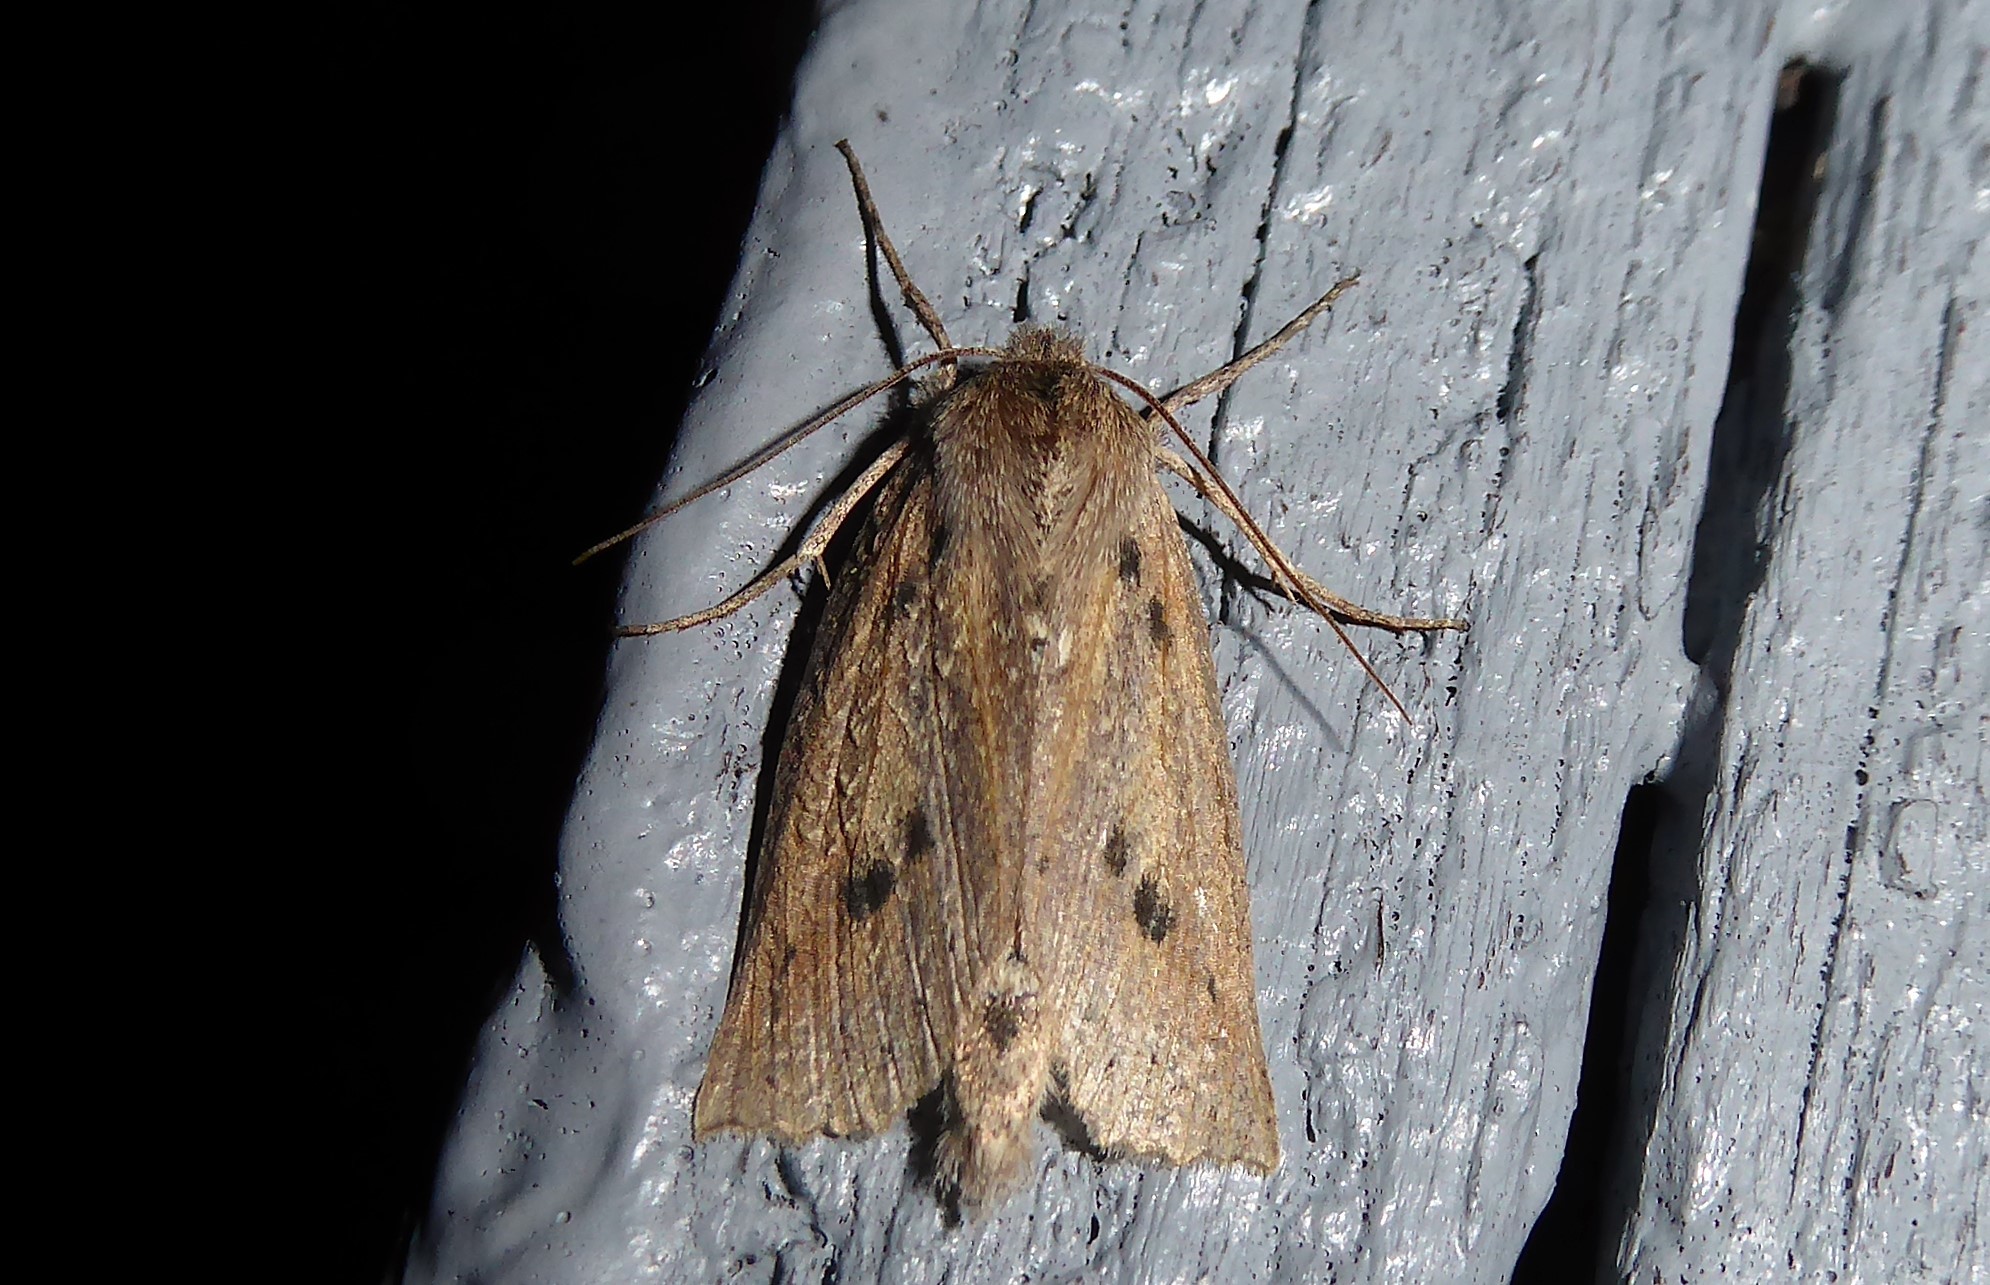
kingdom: Animalia
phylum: Arthropoda
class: Insecta
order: Lepidoptera
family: Geometridae
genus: Declana
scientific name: Declana leptomera
